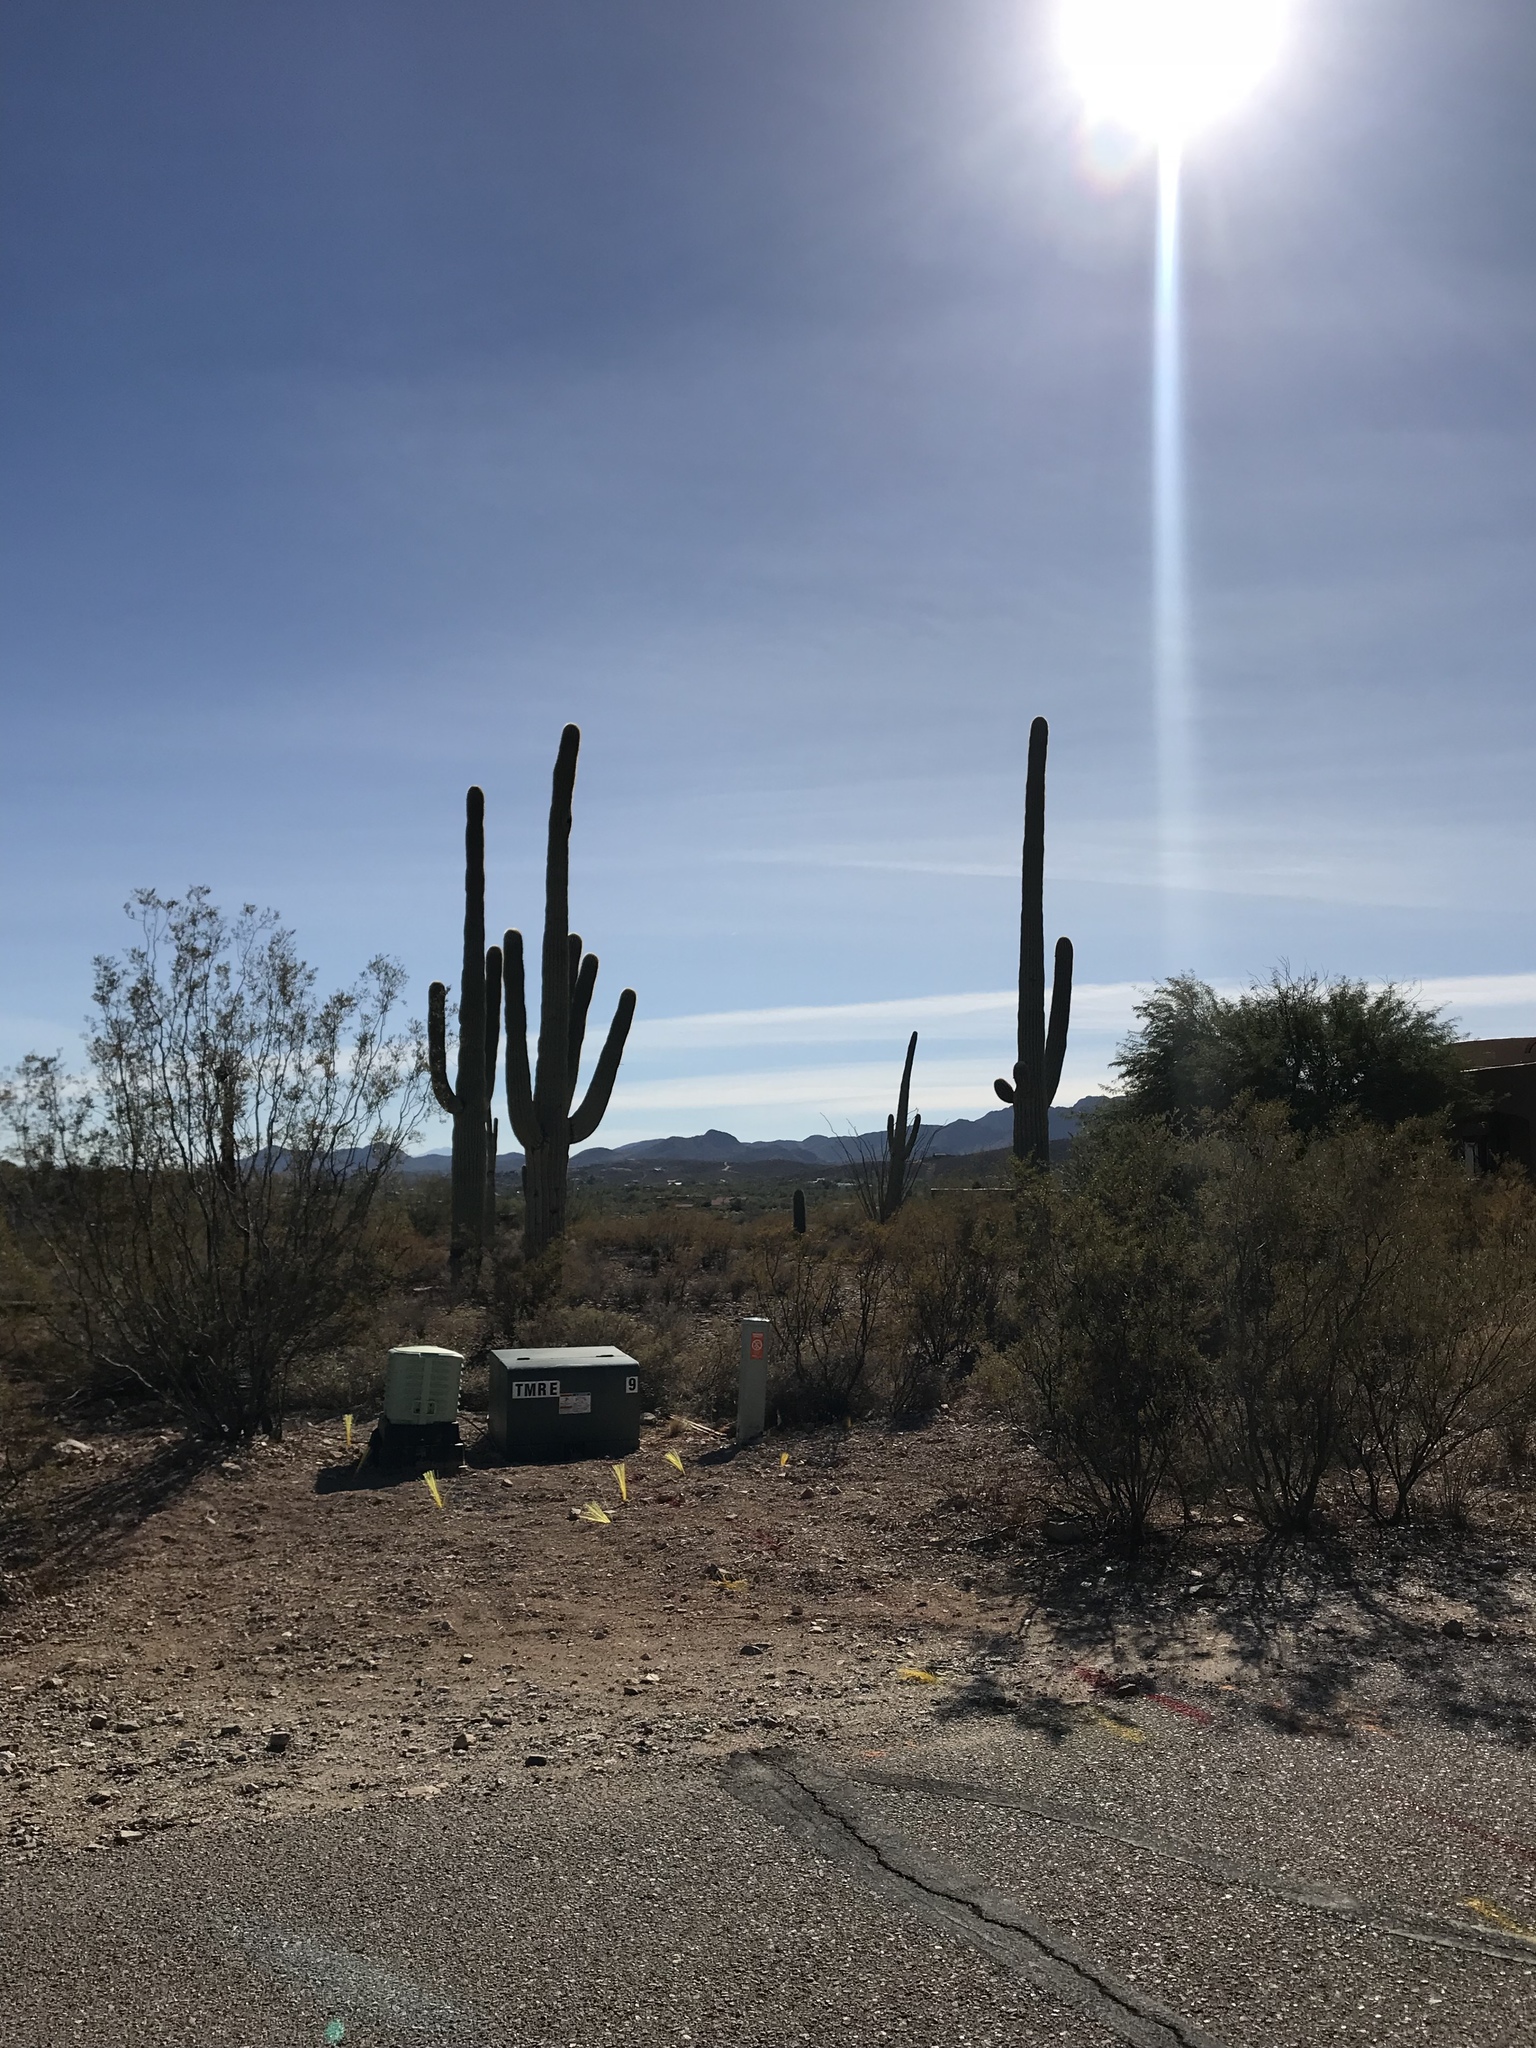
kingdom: Plantae
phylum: Tracheophyta
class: Magnoliopsida
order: Caryophyllales
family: Cactaceae
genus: Carnegiea
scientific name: Carnegiea gigantea
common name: Saguaro
